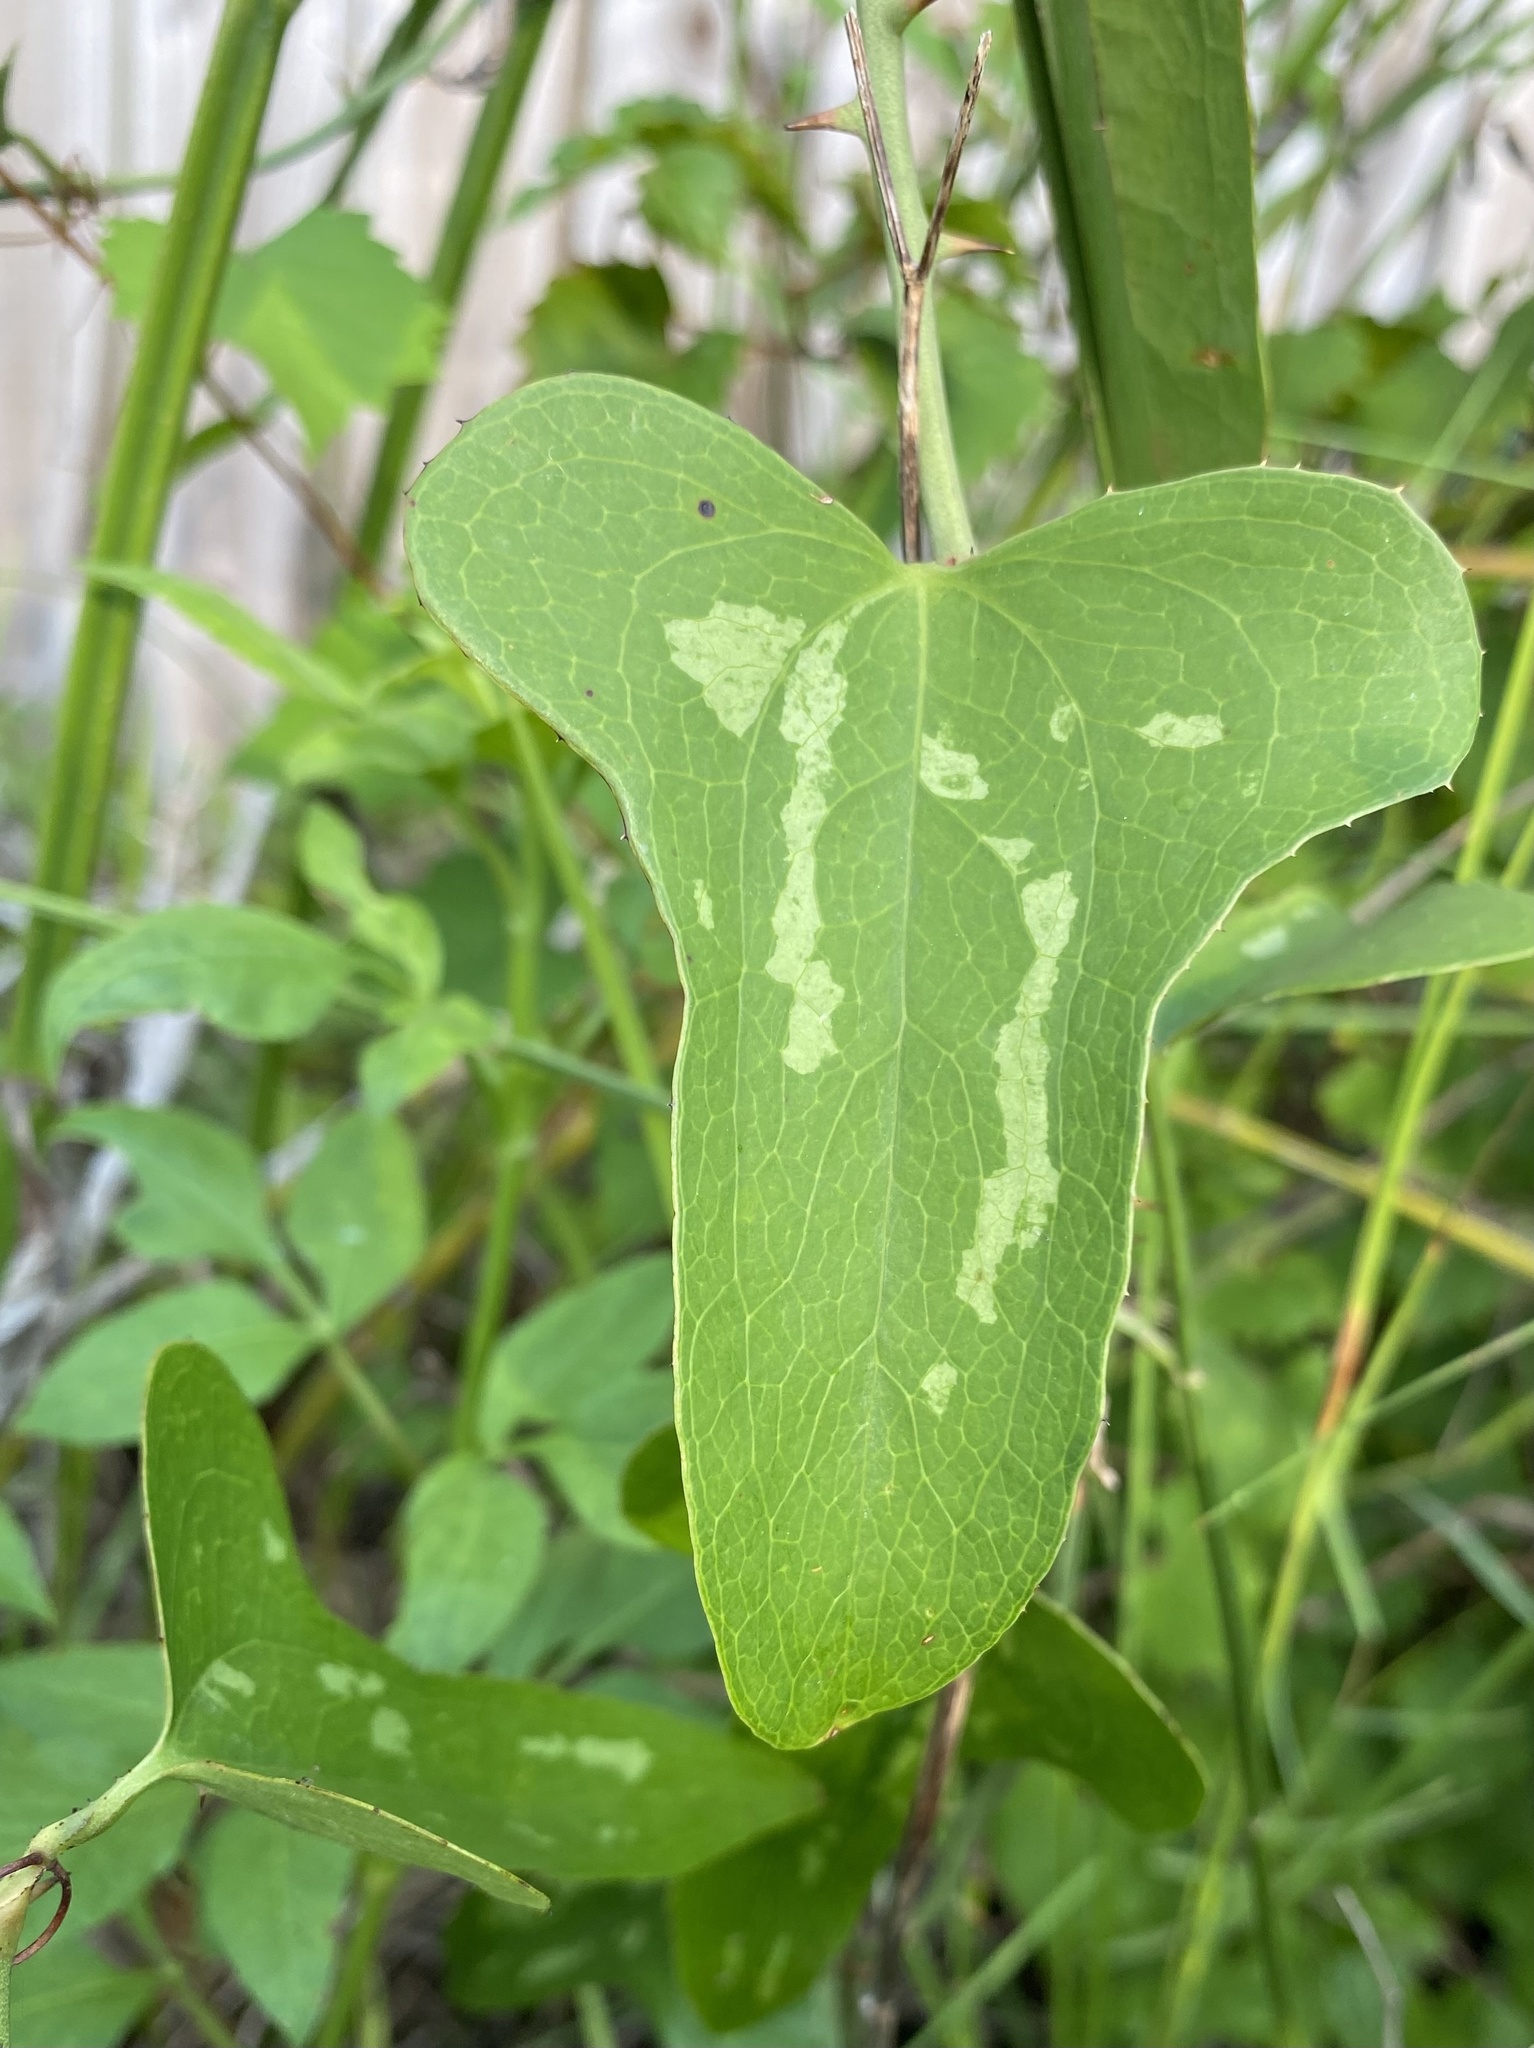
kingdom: Plantae
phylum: Tracheophyta
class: Liliopsida
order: Liliales
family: Smilacaceae
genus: Smilax
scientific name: Smilax bona-nox
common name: Catbrier
